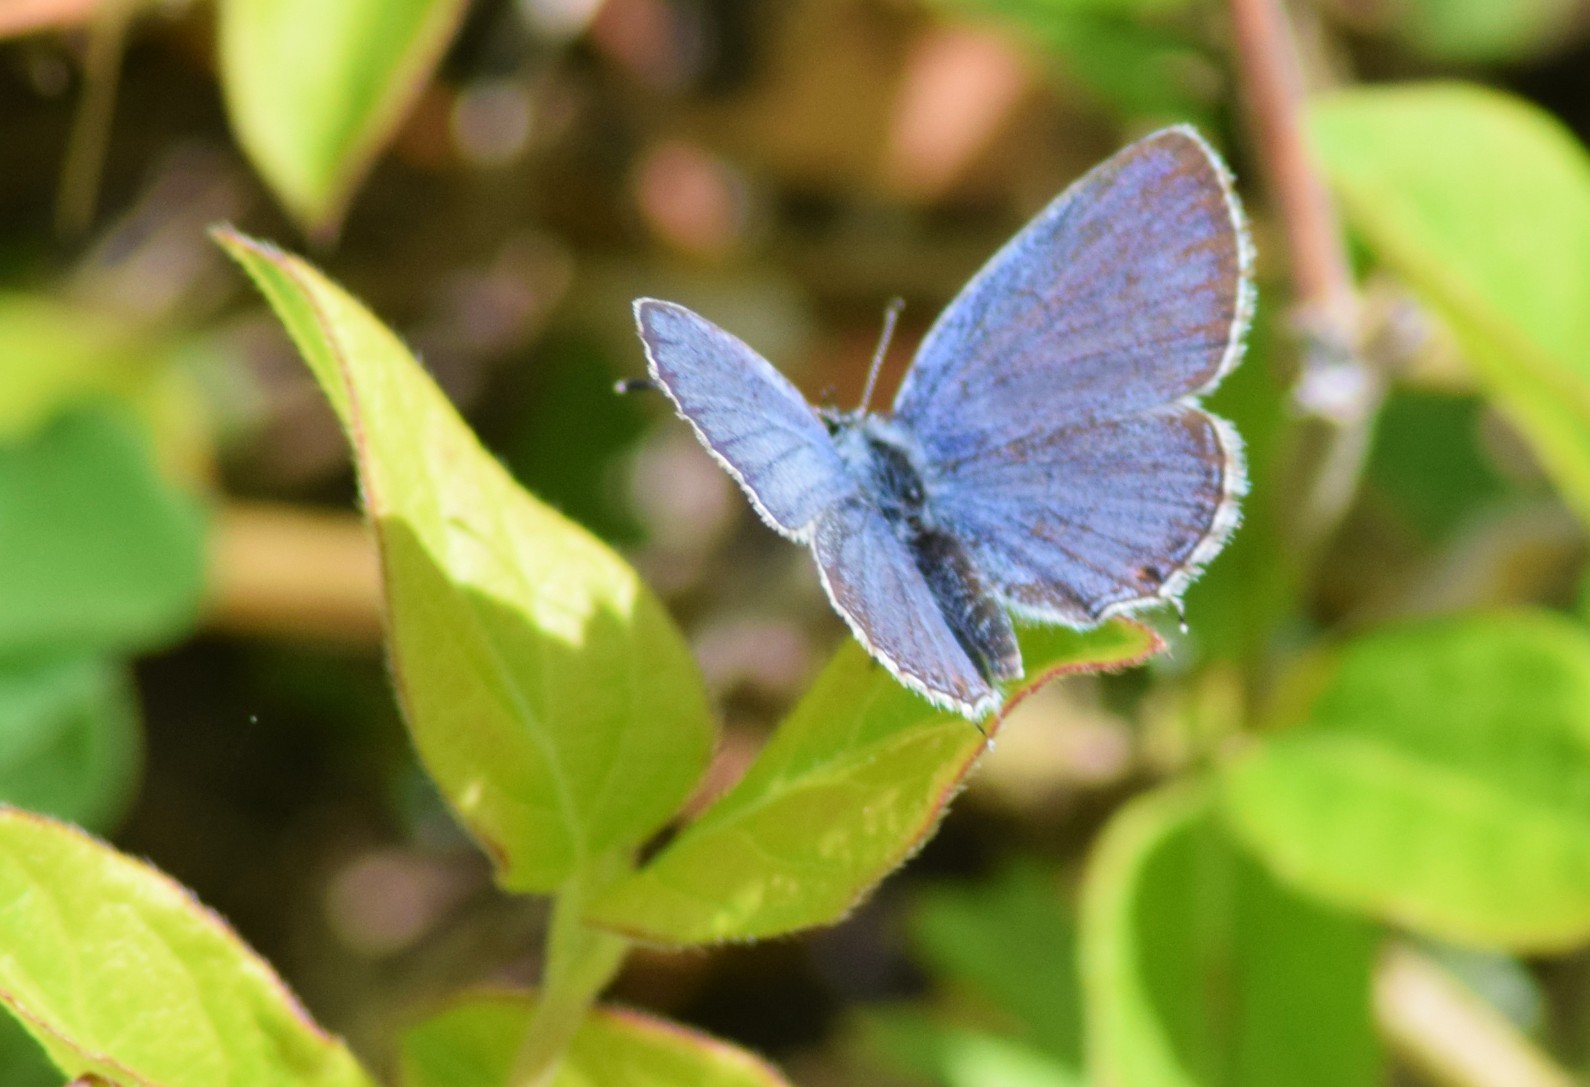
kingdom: Animalia
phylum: Arthropoda
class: Insecta
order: Lepidoptera
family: Lycaenidae
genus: Elkalyce
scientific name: Elkalyce comyntas
